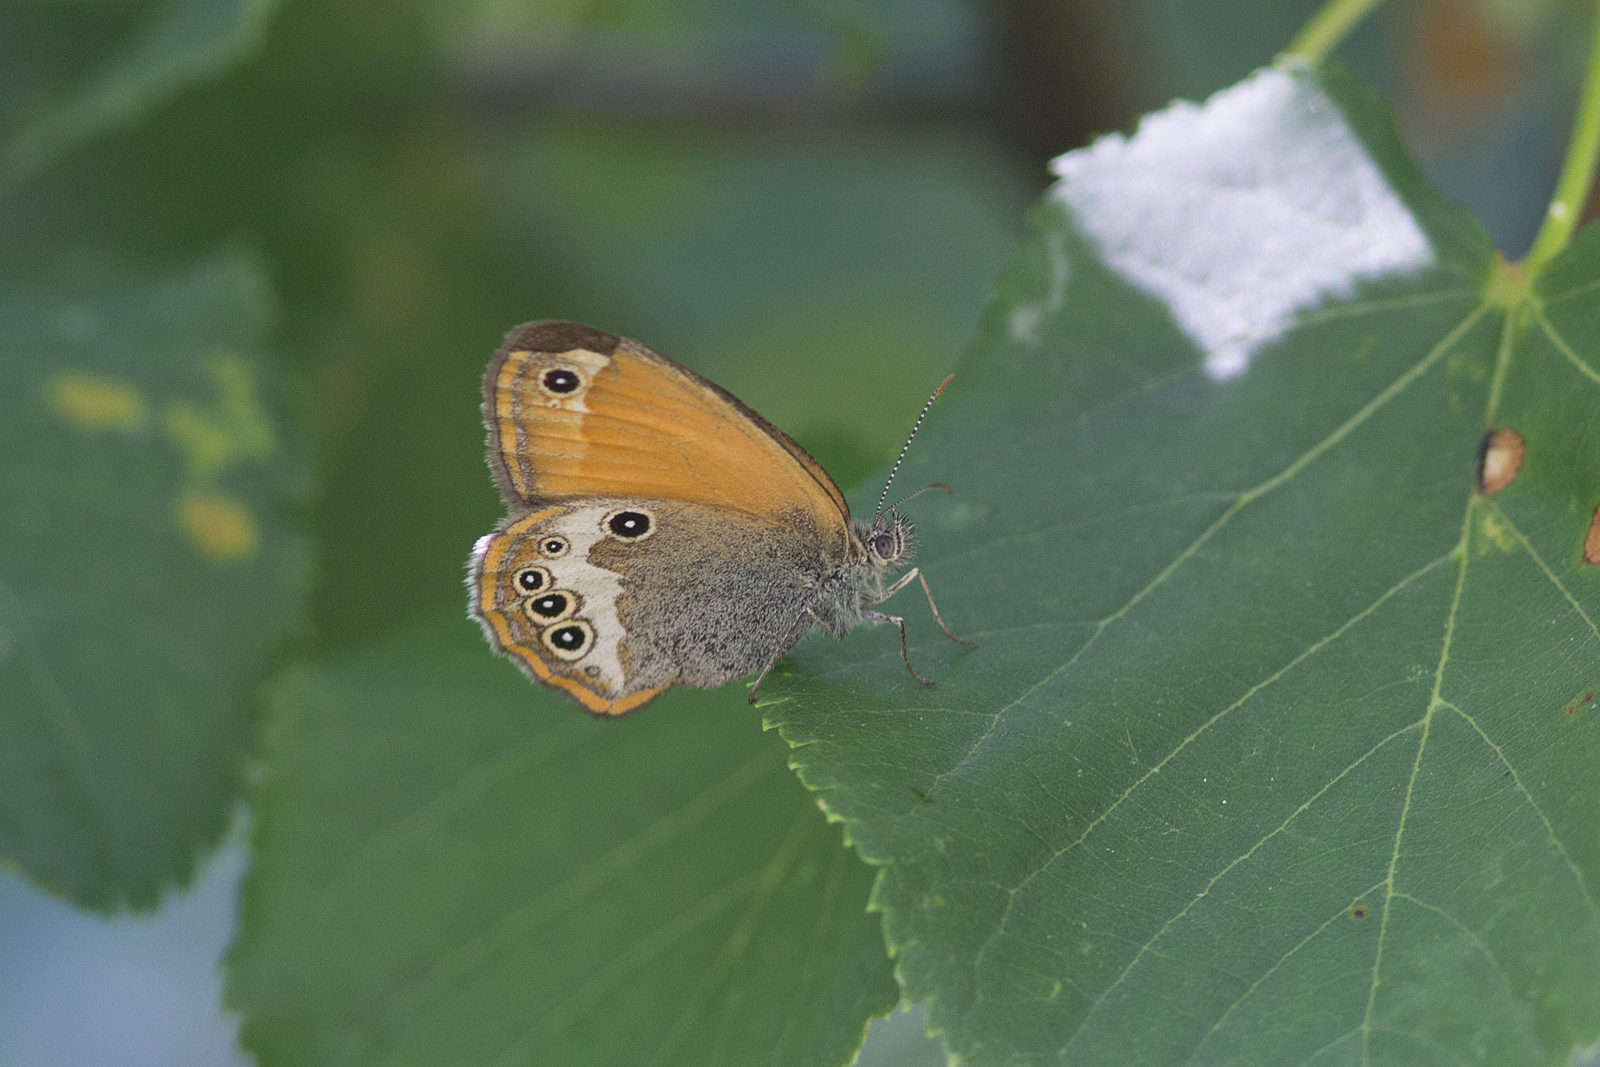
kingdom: Animalia
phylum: Arthropoda
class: Insecta
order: Lepidoptera
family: Nymphalidae
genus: Coenonympha
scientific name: Coenonympha arcania
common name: Pearly heath
